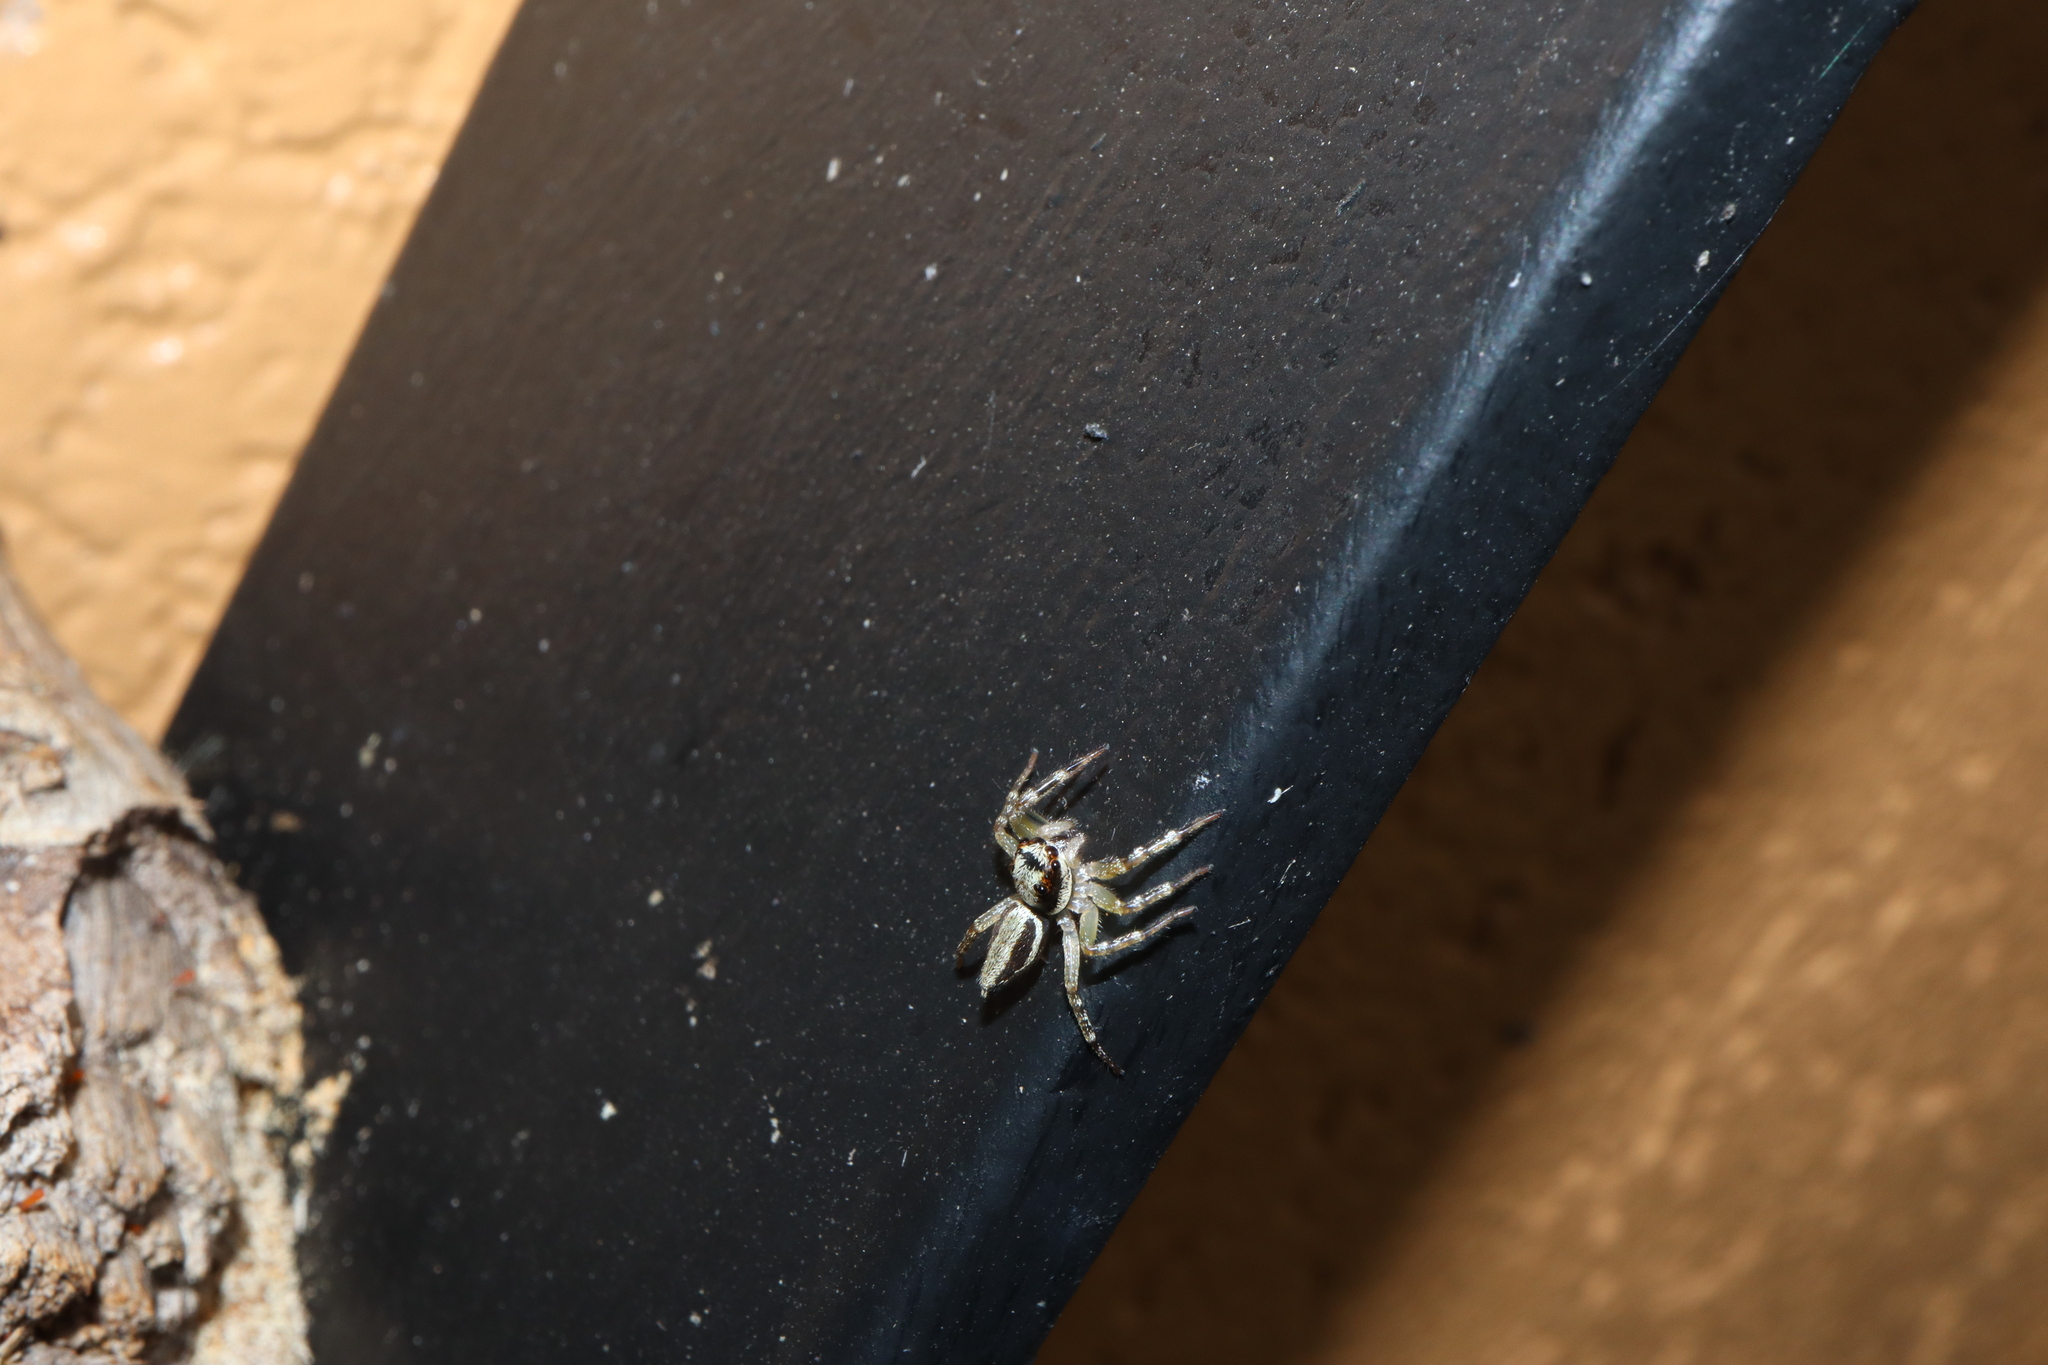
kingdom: Animalia
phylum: Arthropoda
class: Arachnida
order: Araneae
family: Salticidae
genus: Zenodorus
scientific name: Zenodorus swiftorum
